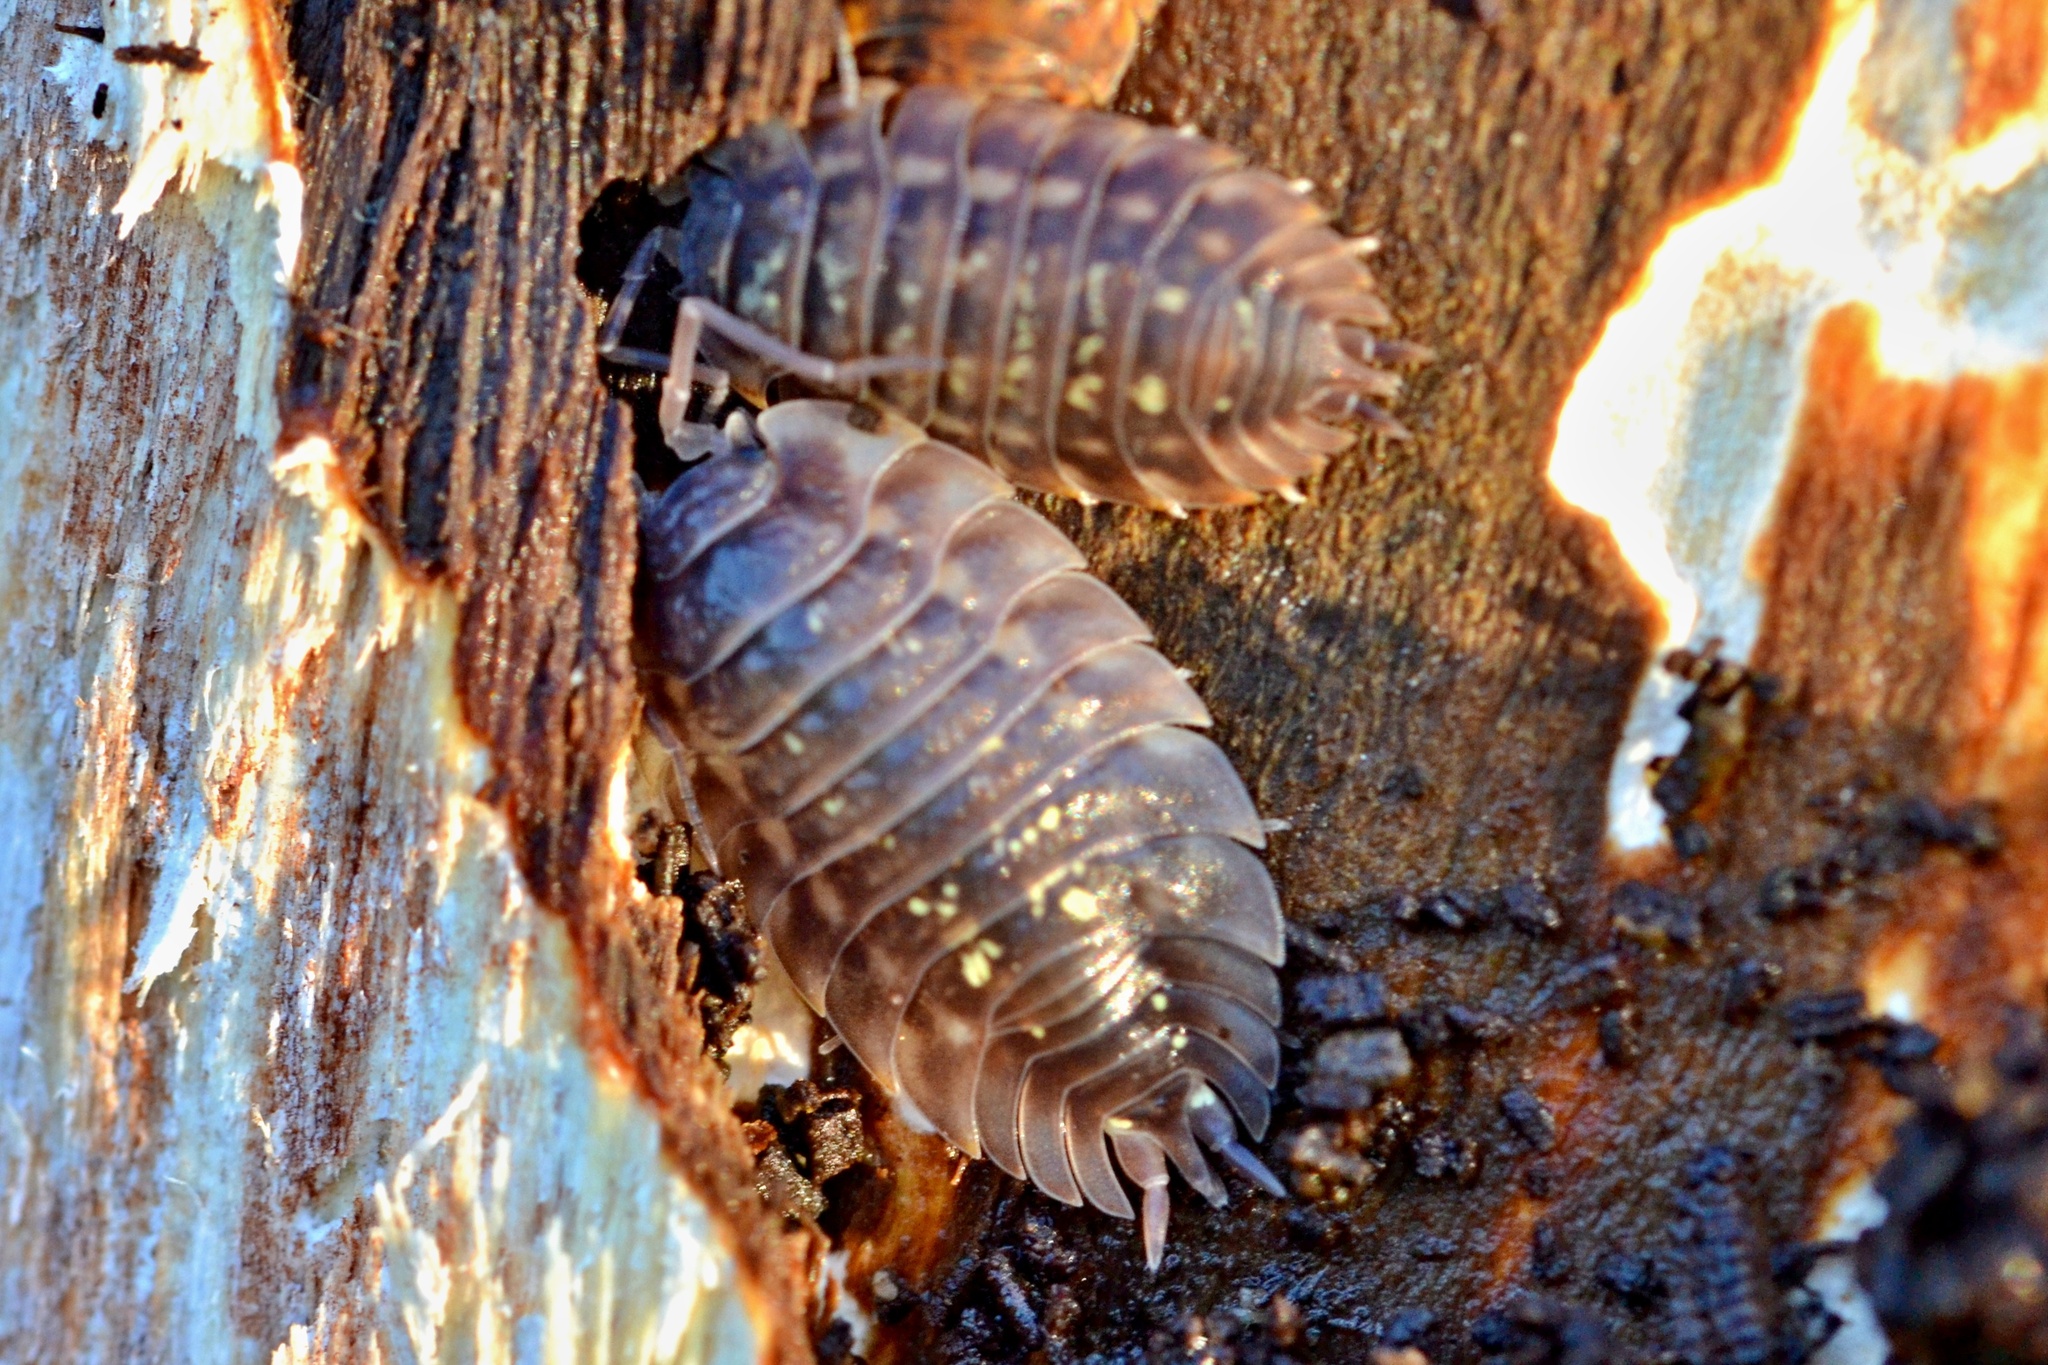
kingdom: Animalia
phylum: Arthropoda
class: Malacostraca
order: Isopoda
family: Oniscidae
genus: Oniscus
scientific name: Oniscus asellus
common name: Common shiny woodlouse
